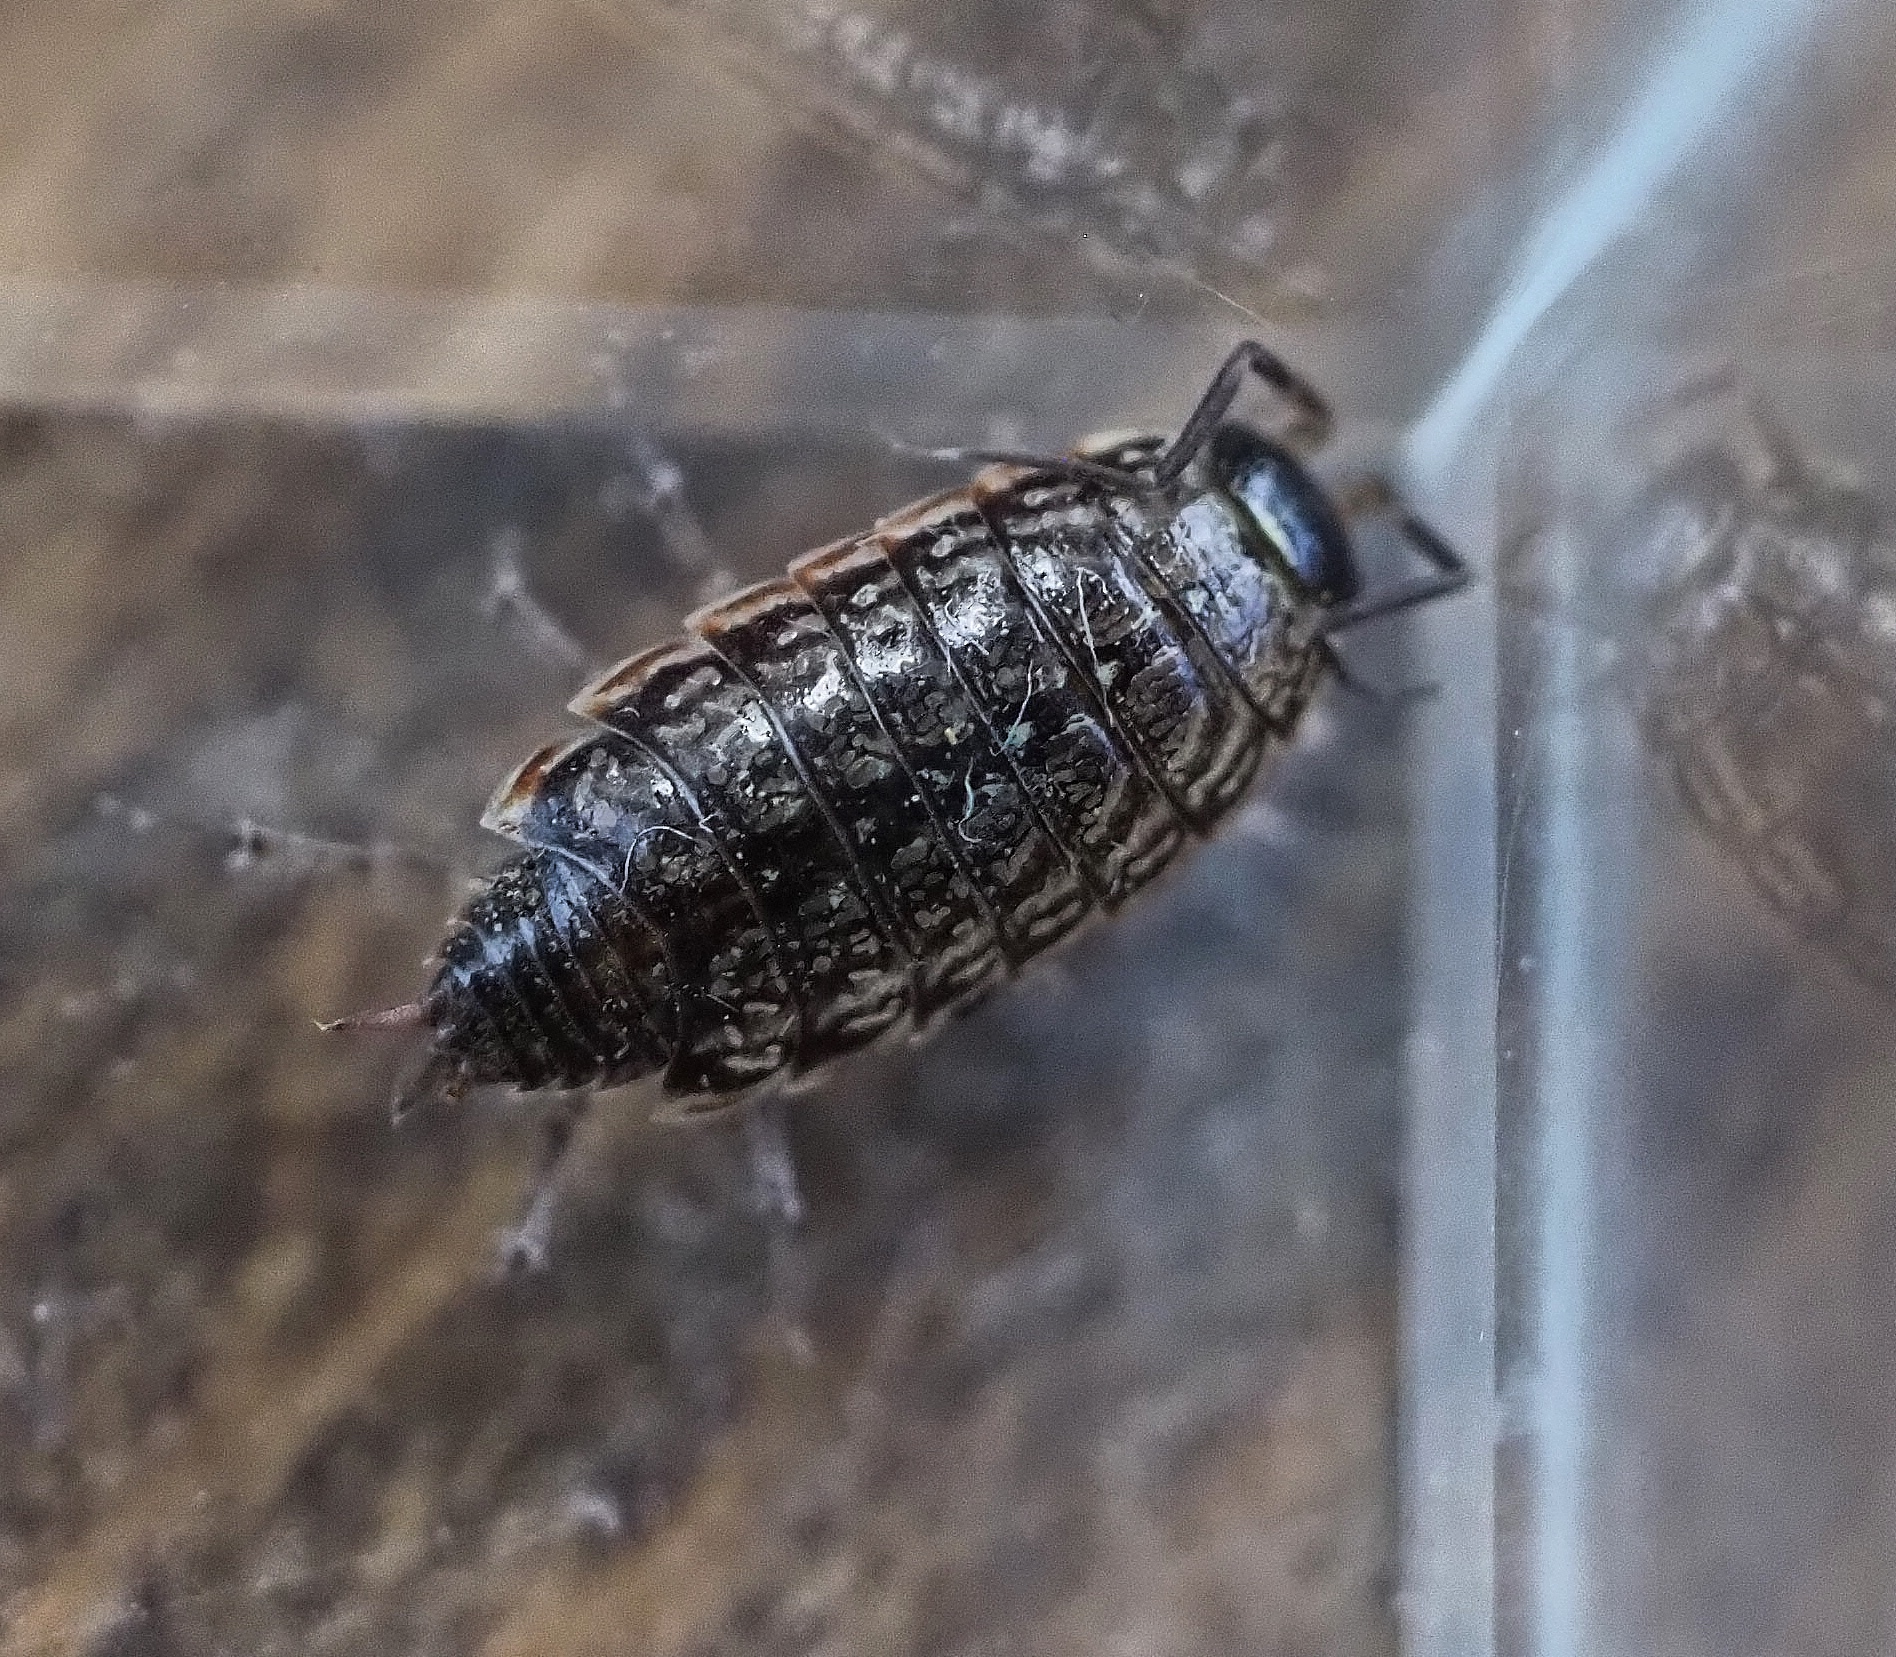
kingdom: Animalia
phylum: Arthropoda
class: Malacostraca
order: Isopoda
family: Philosciidae
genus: Philoscia
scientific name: Philoscia muscorum
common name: Common striped woodlouse
